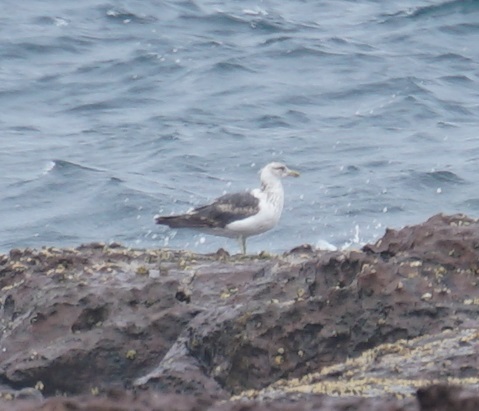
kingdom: Animalia
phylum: Chordata
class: Aves
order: Charadriiformes
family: Laridae
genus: Larus
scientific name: Larus dominicanus
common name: Kelp gull
